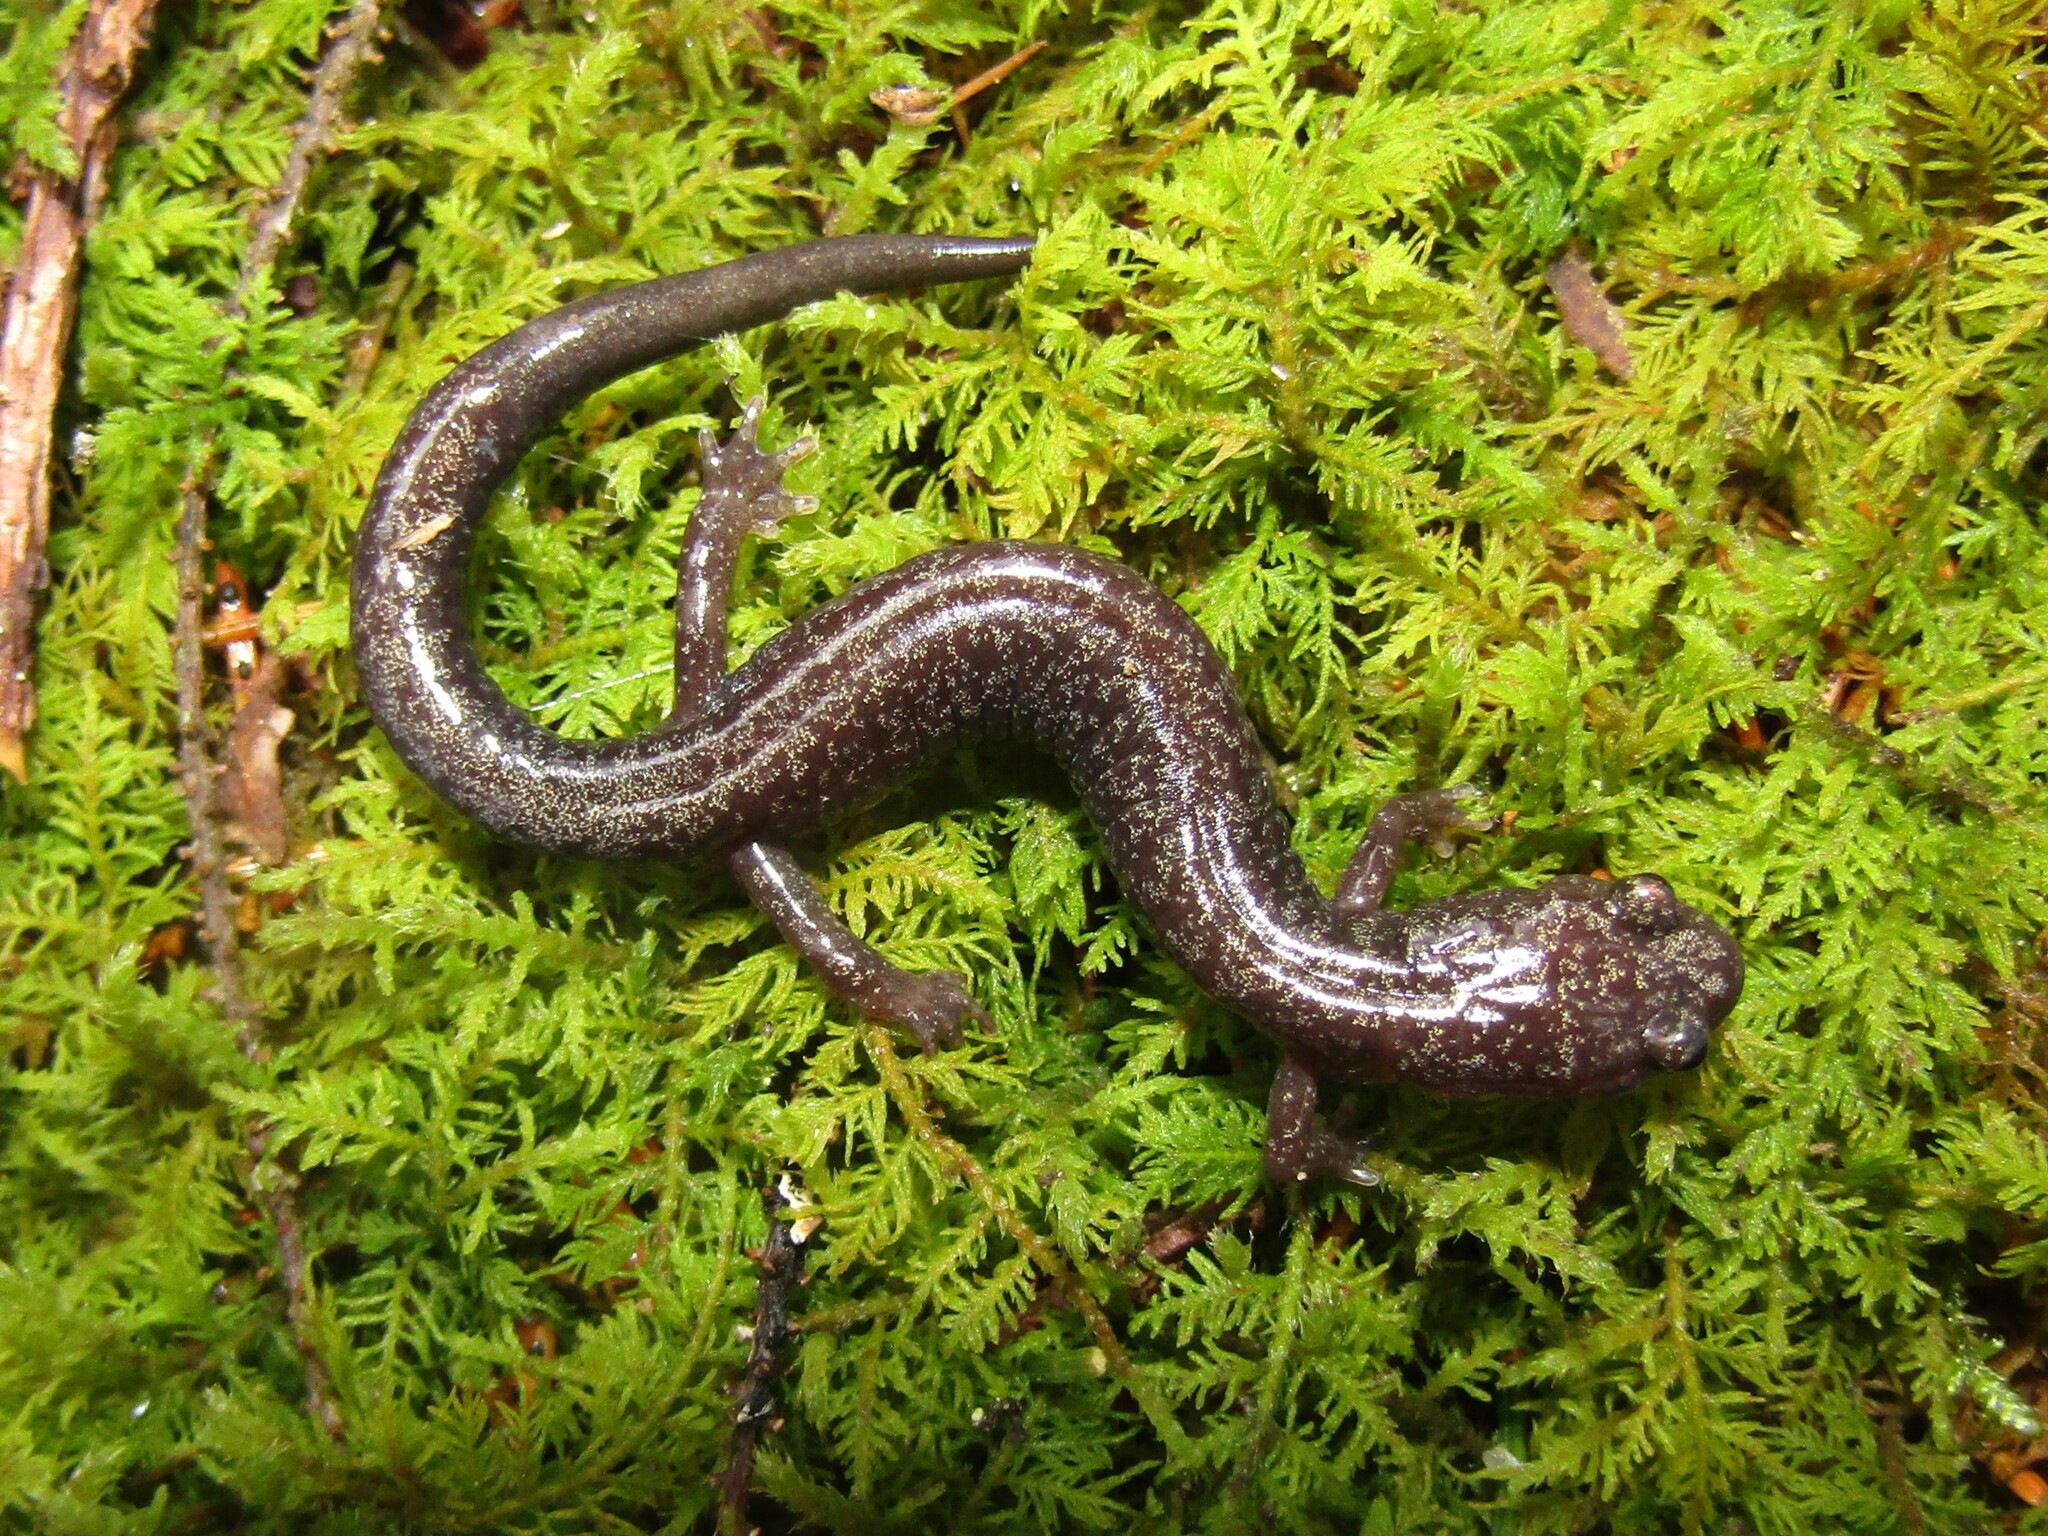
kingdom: Animalia
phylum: Chordata
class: Amphibia
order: Caudata
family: Plethodontidae
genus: Plethodon
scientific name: Plethodon nettingi
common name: Cheat mountain salamander
